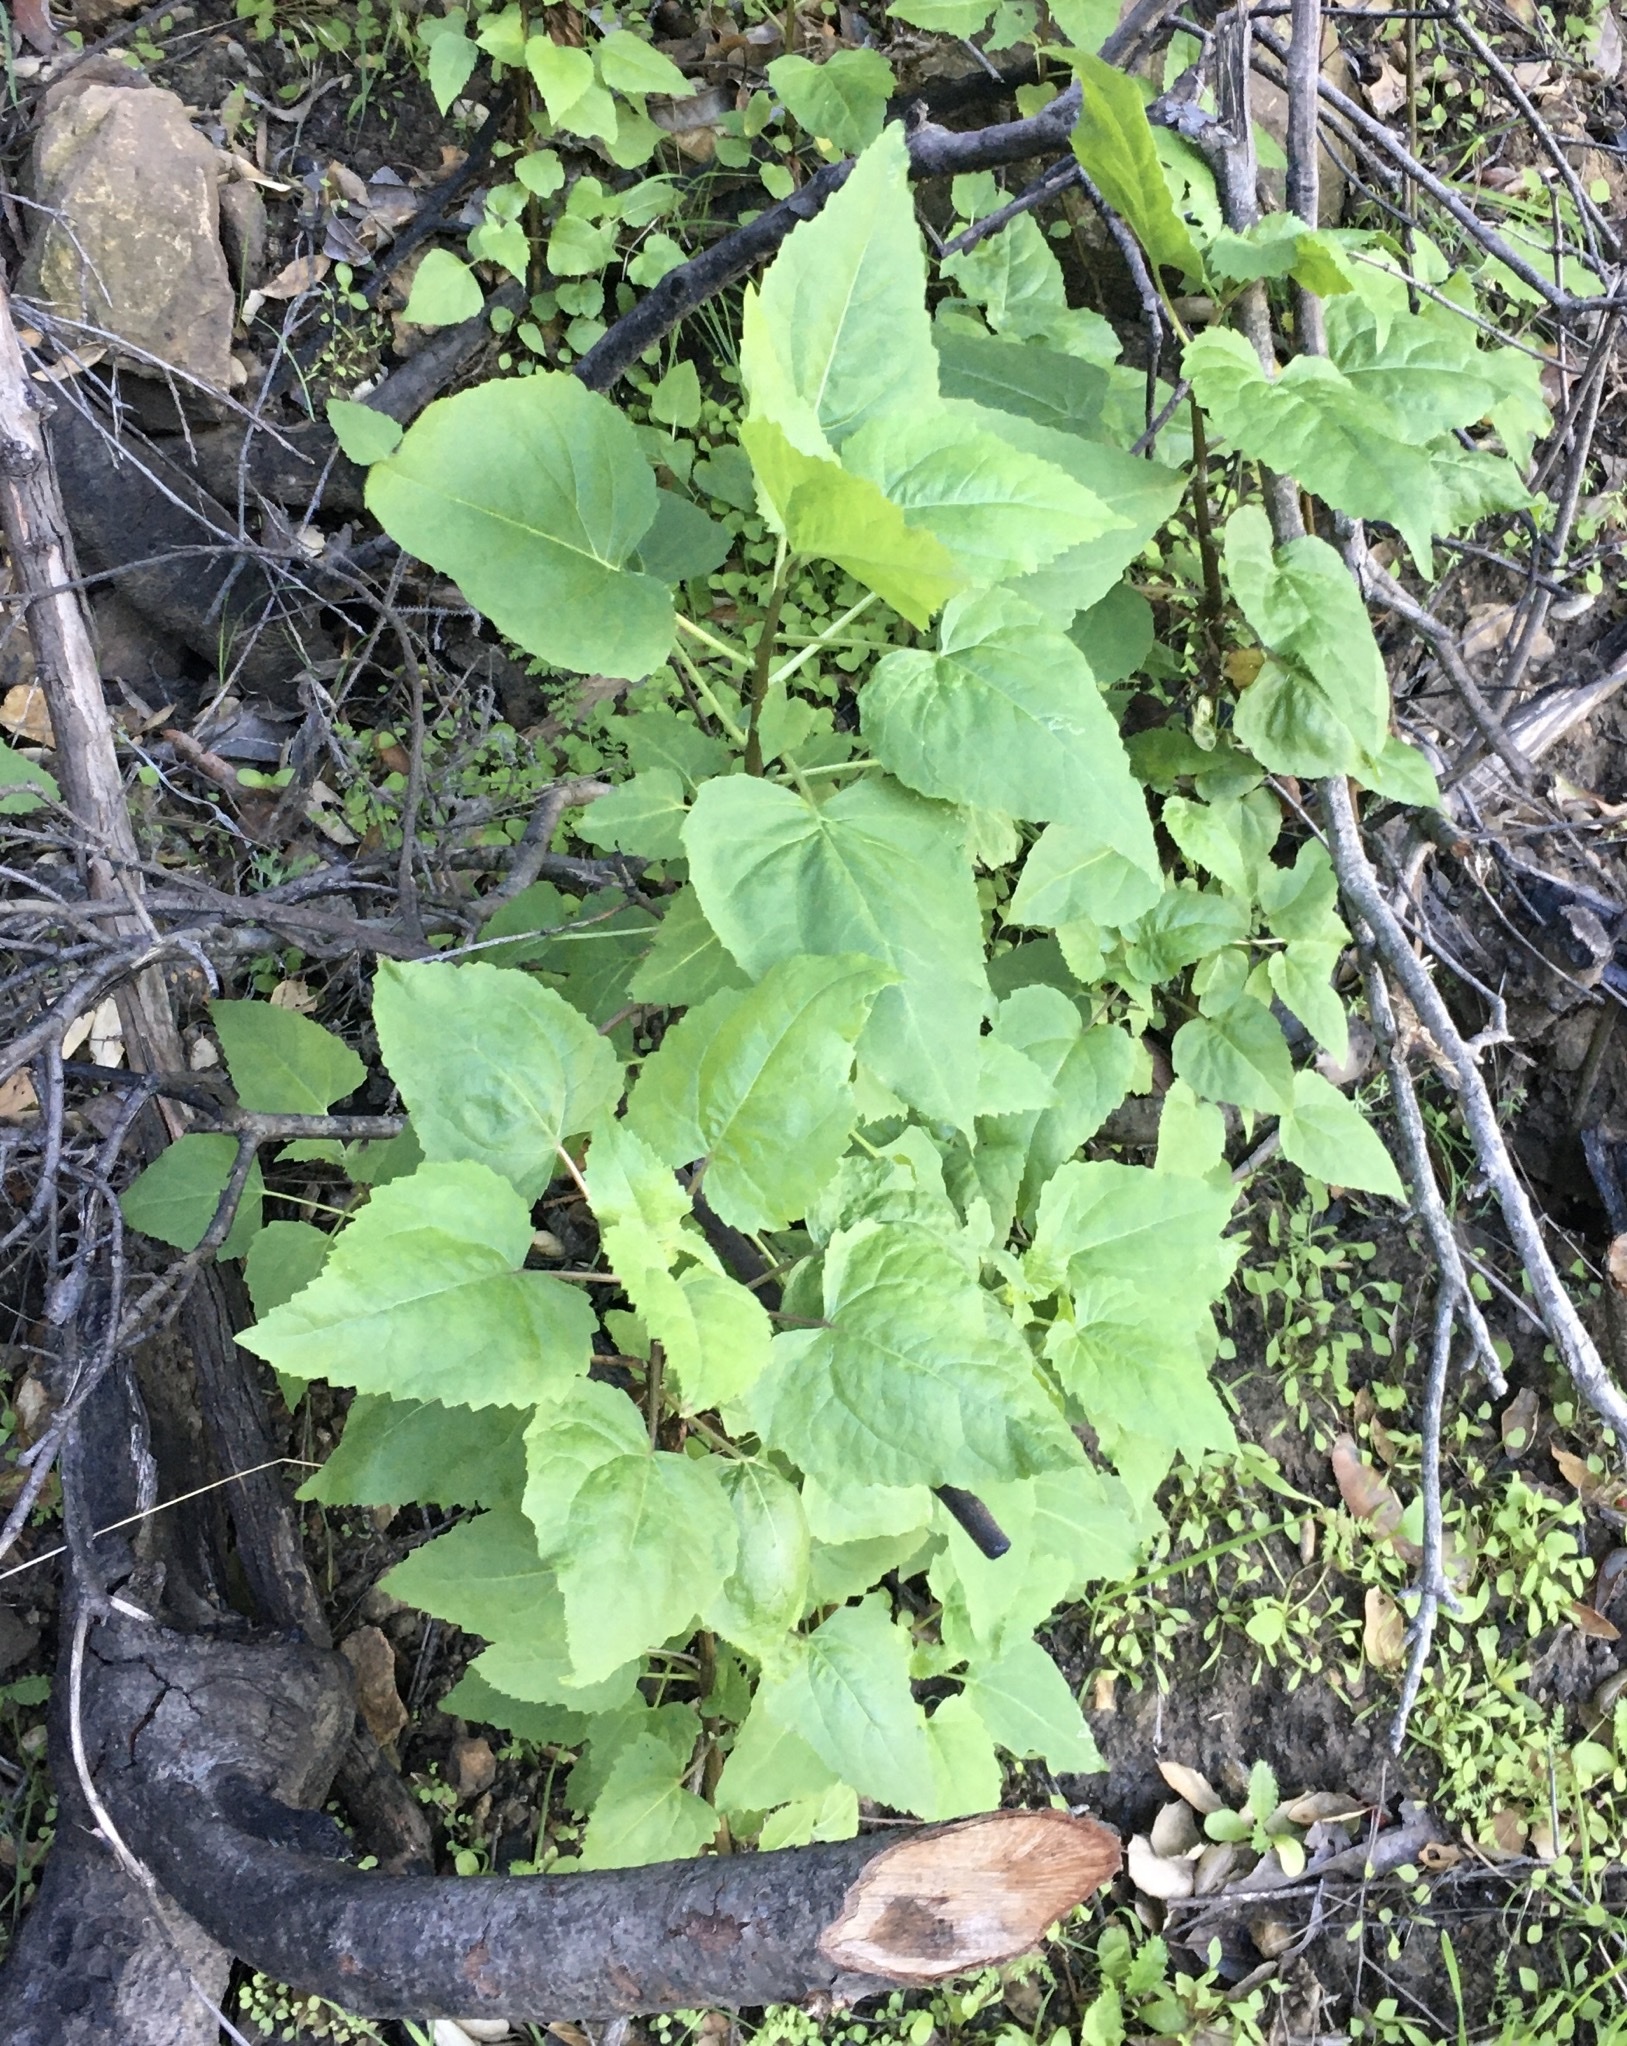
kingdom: Plantae
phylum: Tracheophyta
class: Magnoliopsida
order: Asterales
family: Asteraceae
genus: Venegasia
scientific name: Venegasia carpesioides
